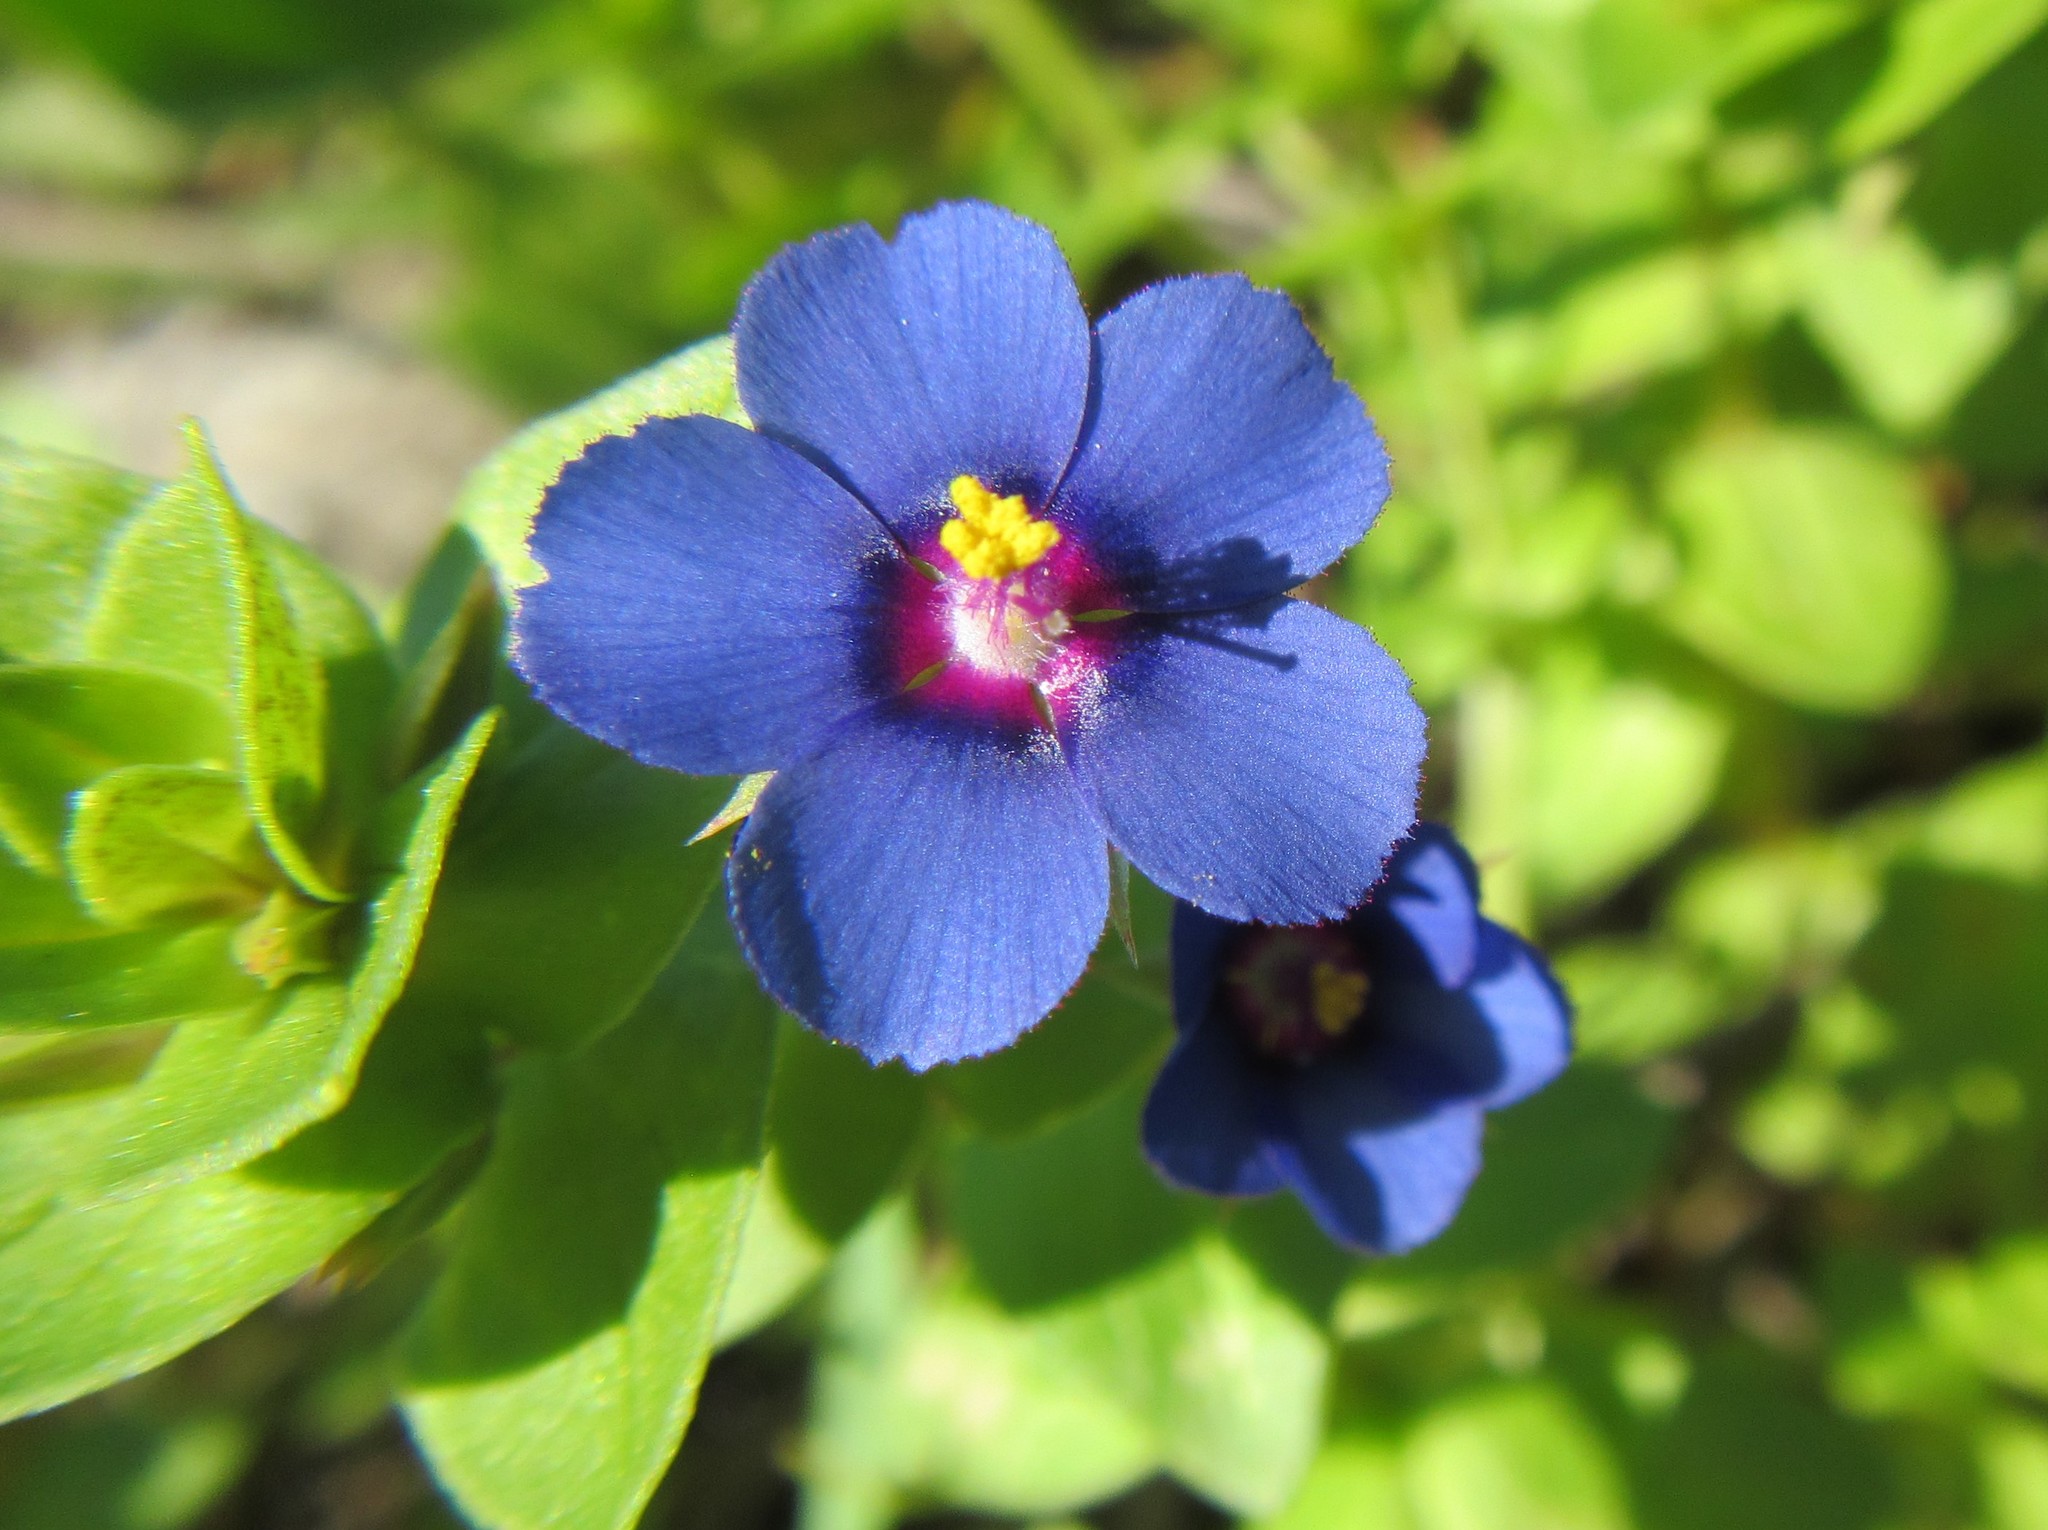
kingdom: Plantae
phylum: Tracheophyta
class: Magnoliopsida
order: Ericales
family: Primulaceae
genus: Lysimachia
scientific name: Lysimachia loeflingii
